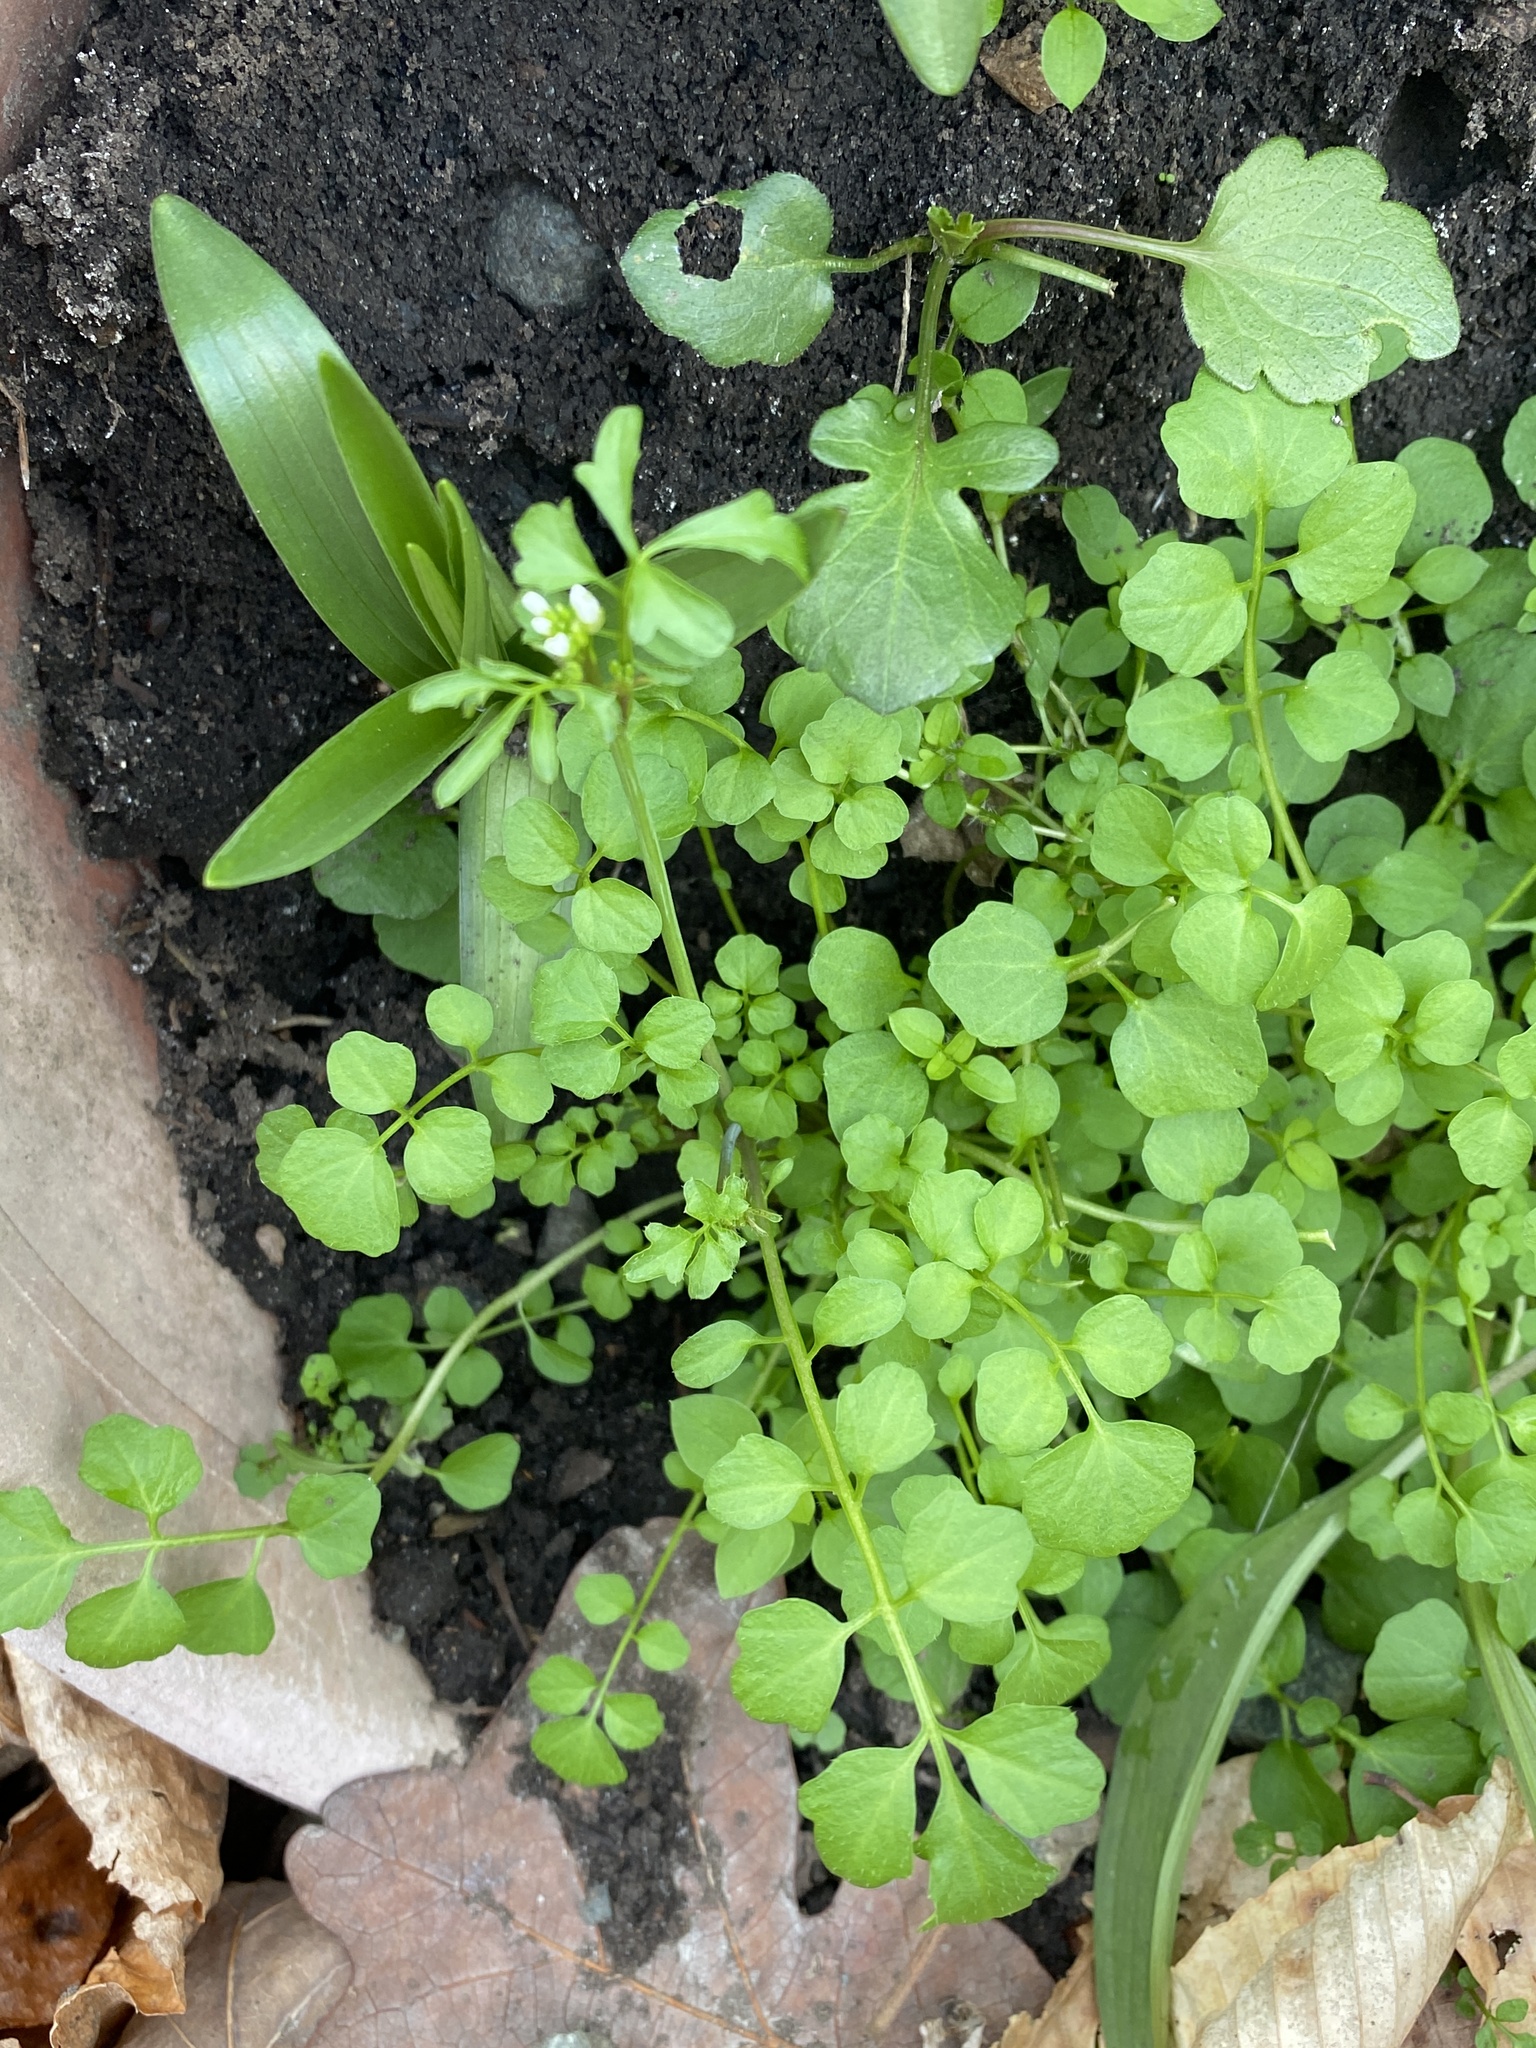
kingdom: Plantae
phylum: Tracheophyta
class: Magnoliopsida
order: Brassicales
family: Brassicaceae
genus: Cardamine
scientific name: Cardamine hirsuta
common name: Hairy bittercress
